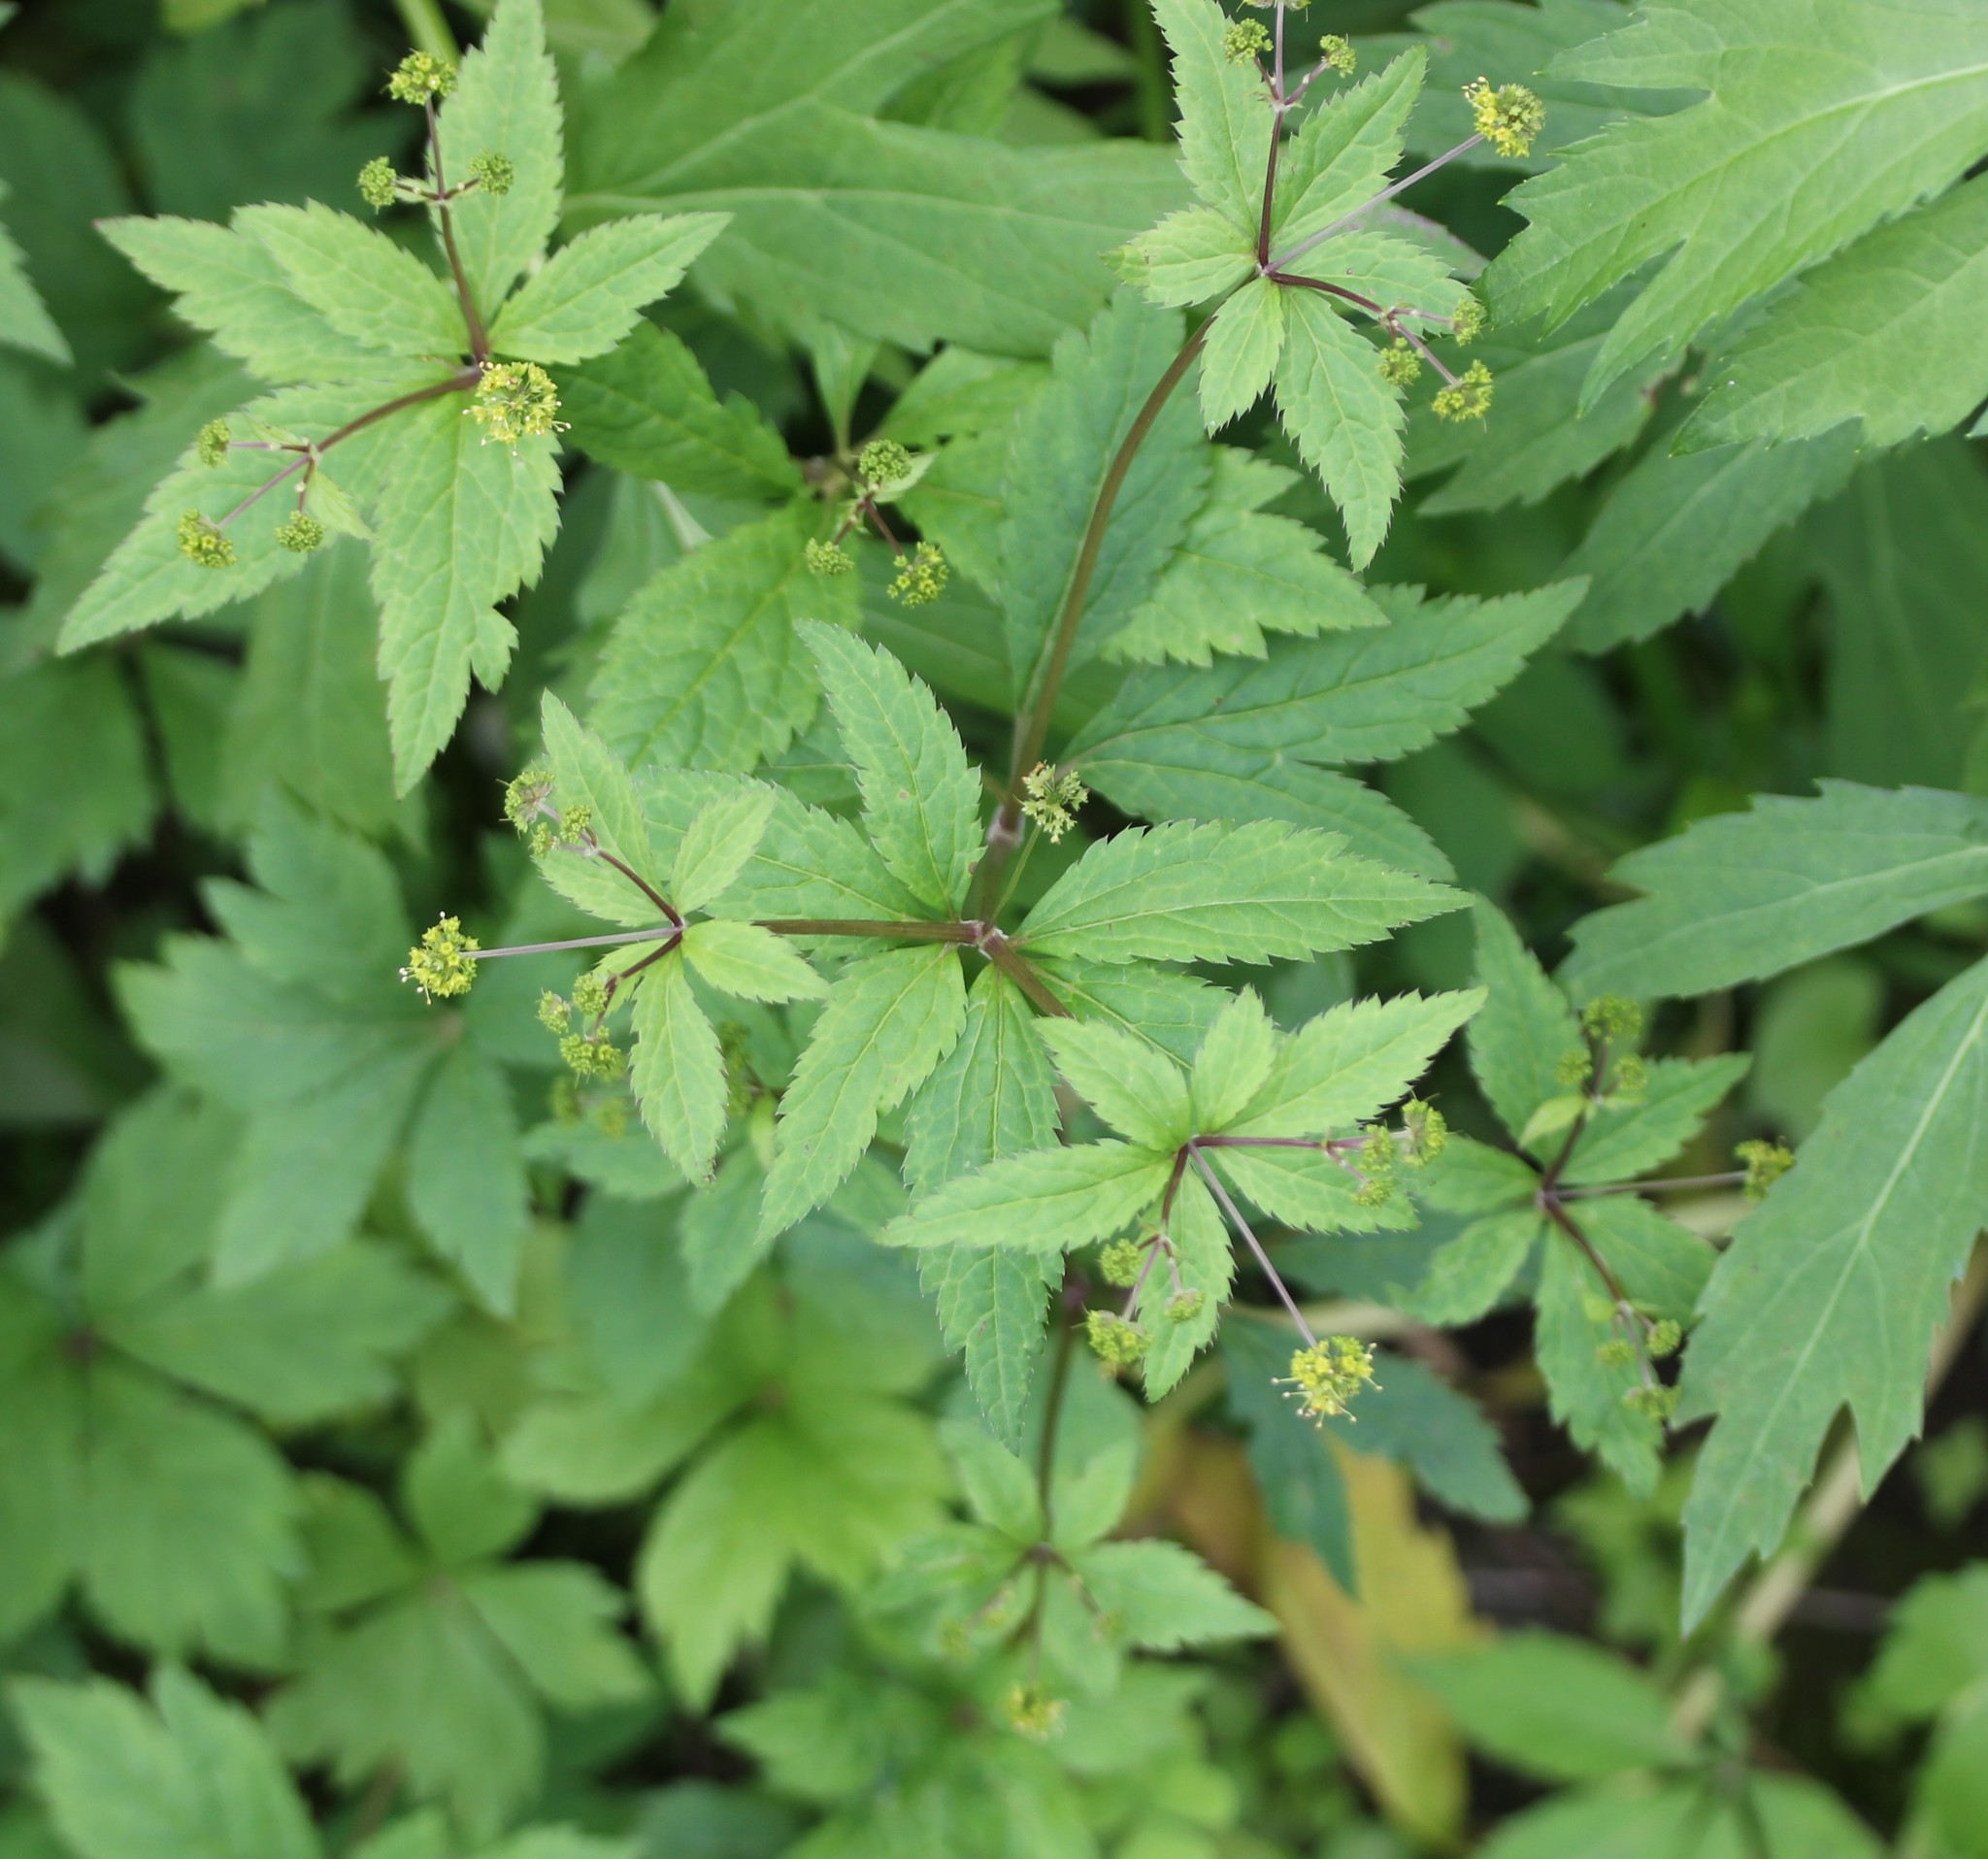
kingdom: Plantae
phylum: Tracheophyta
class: Magnoliopsida
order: Apiales
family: Apiaceae
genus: Sanicula
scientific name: Sanicula odorata
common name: Cluster sanicle
